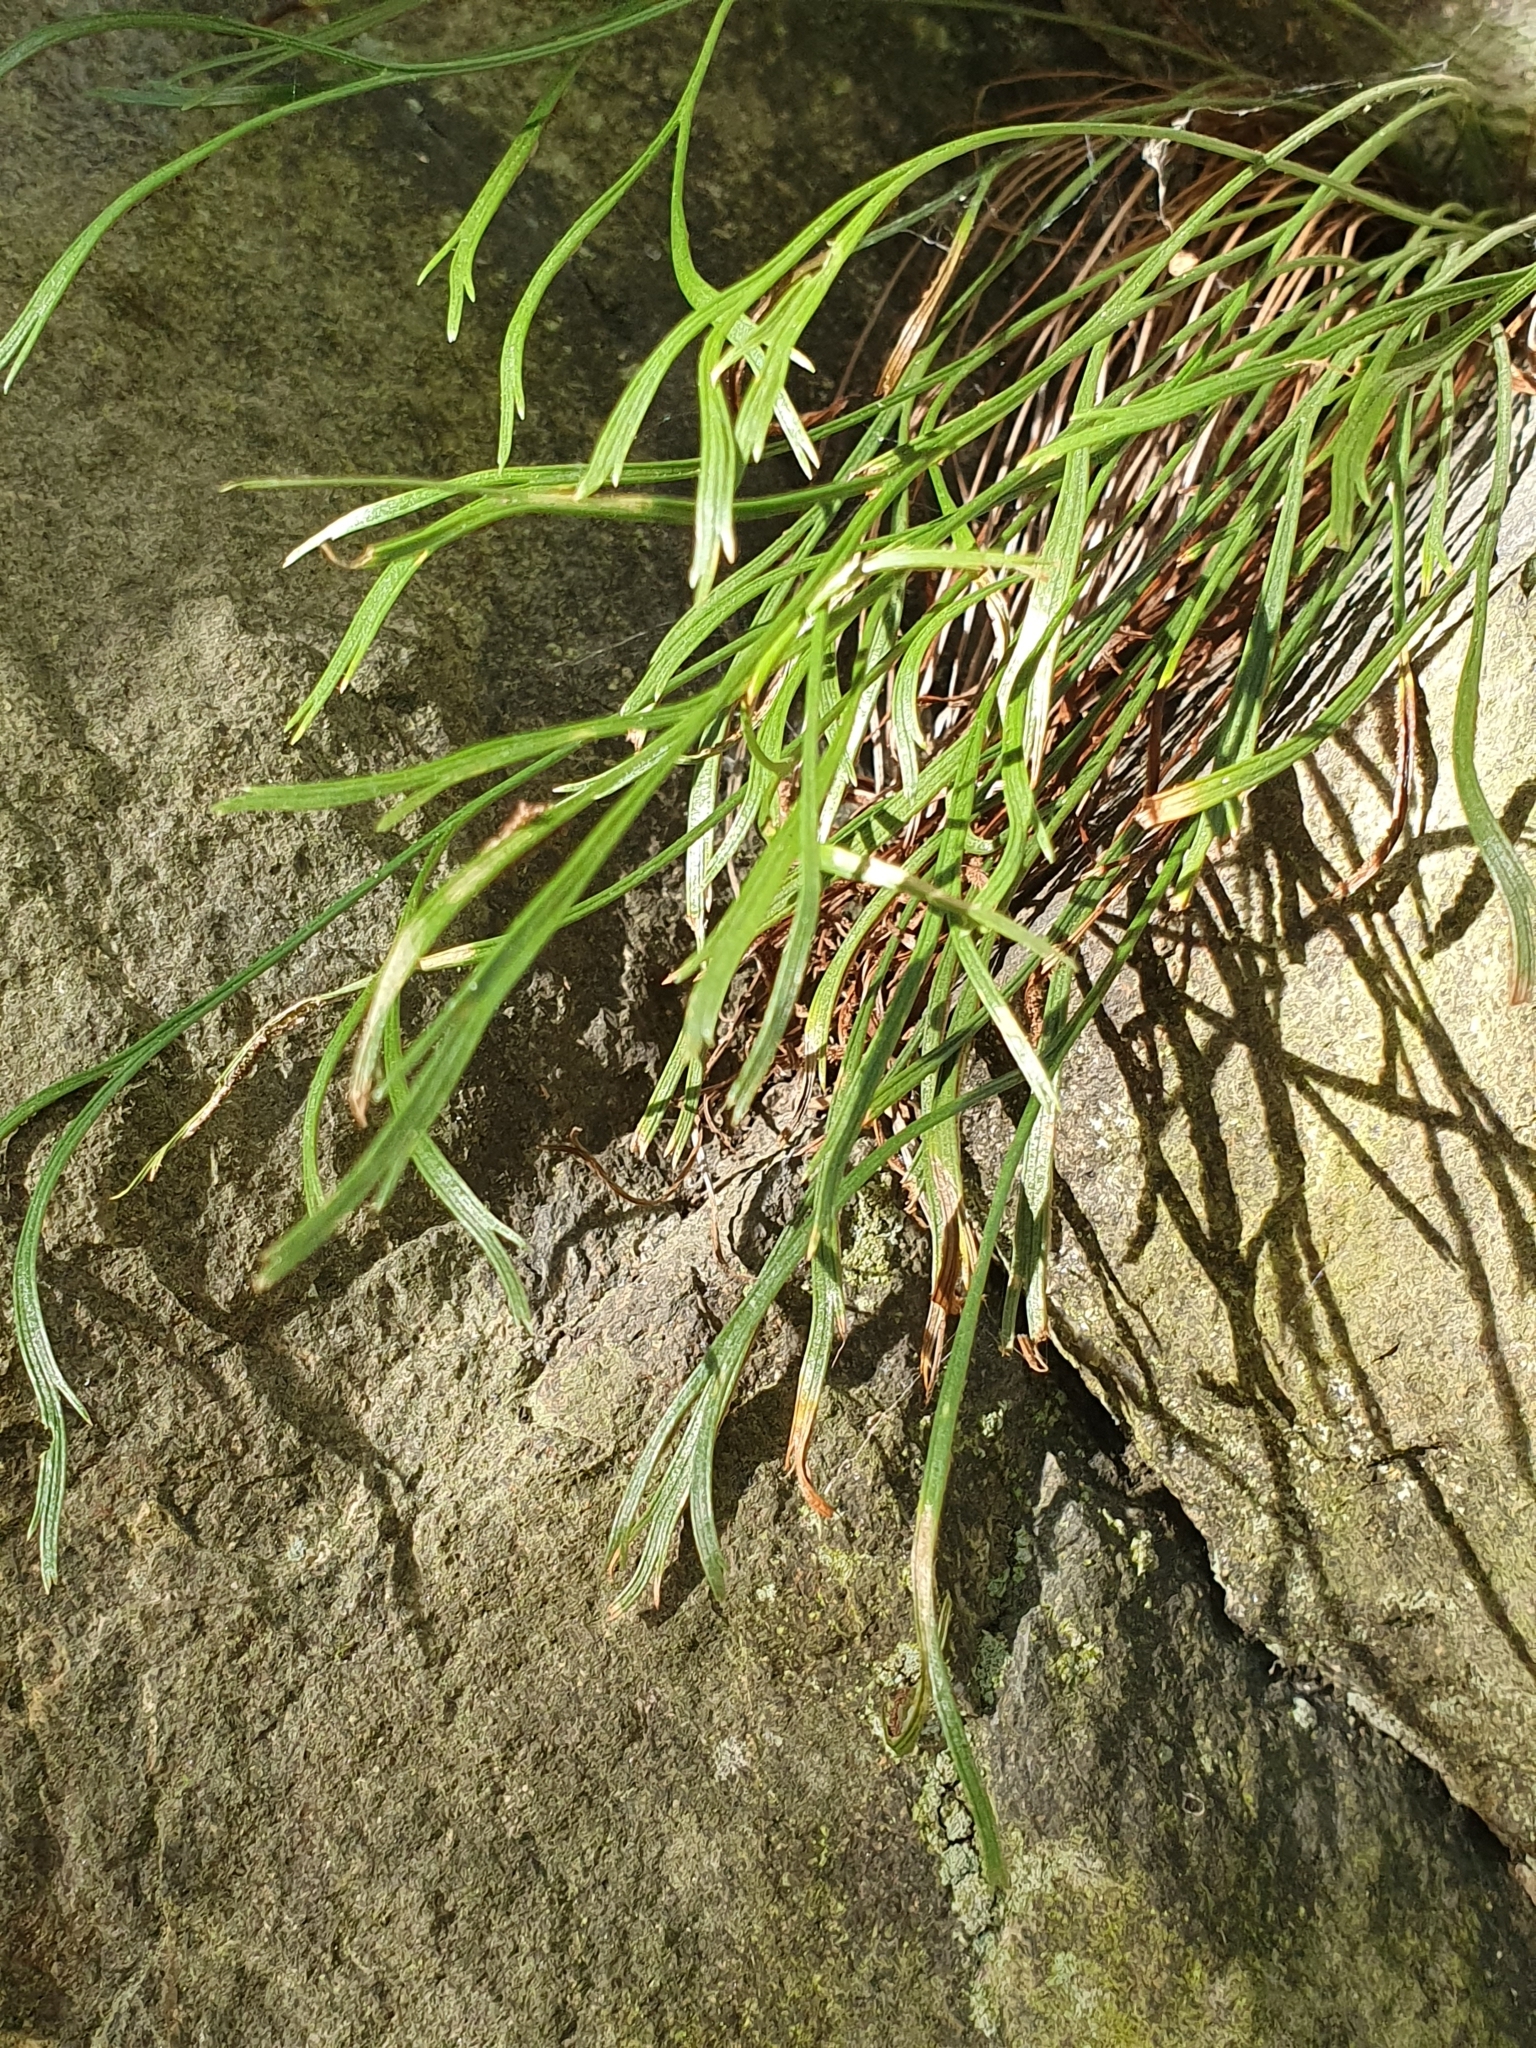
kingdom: Plantae
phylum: Tracheophyta
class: Polypodiopsida
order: Polypodiales
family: Aspleniaceae
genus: Asplenium
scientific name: Asplenium septentrionale
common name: Forked spleenwort
